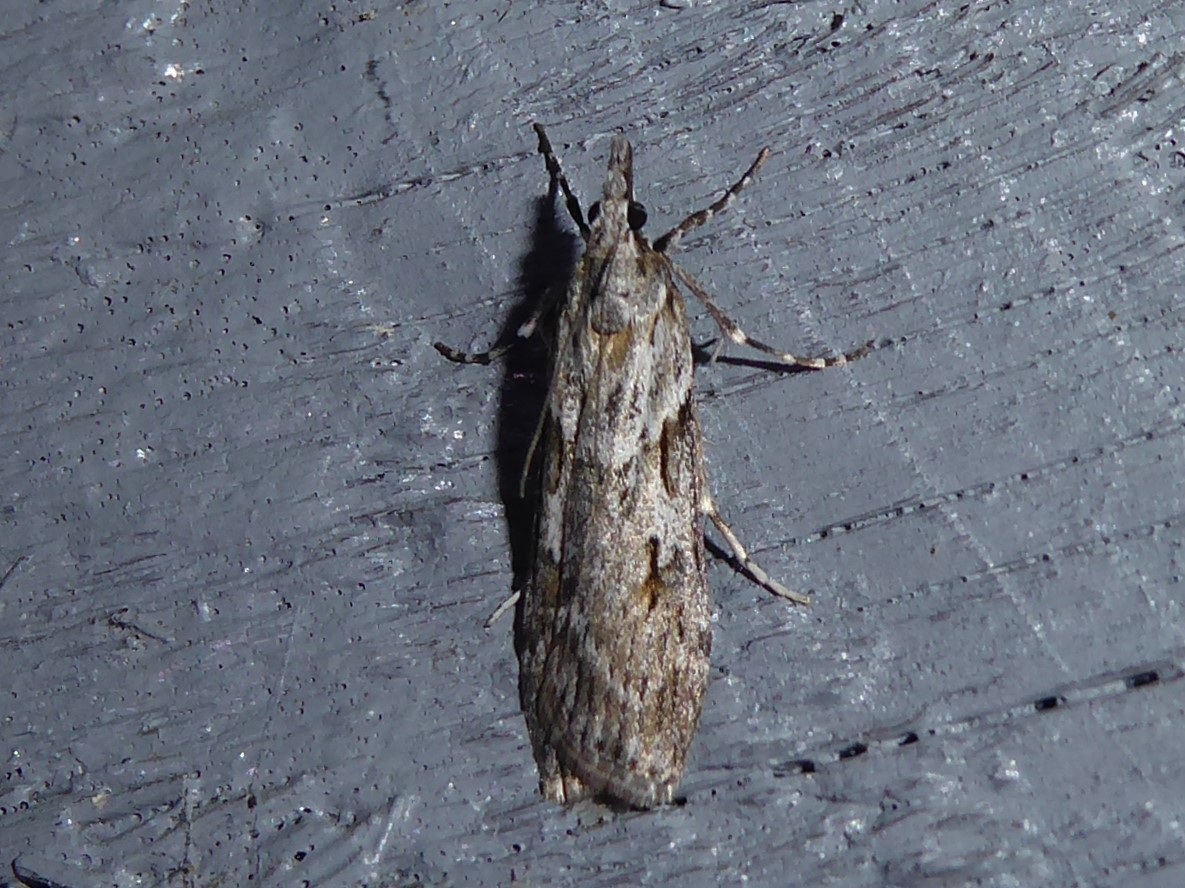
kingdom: Animalia
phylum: Arthropoda
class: Insecta
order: Lepidoptera
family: Crambidae
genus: Scoparia
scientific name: Scoparia halopis
